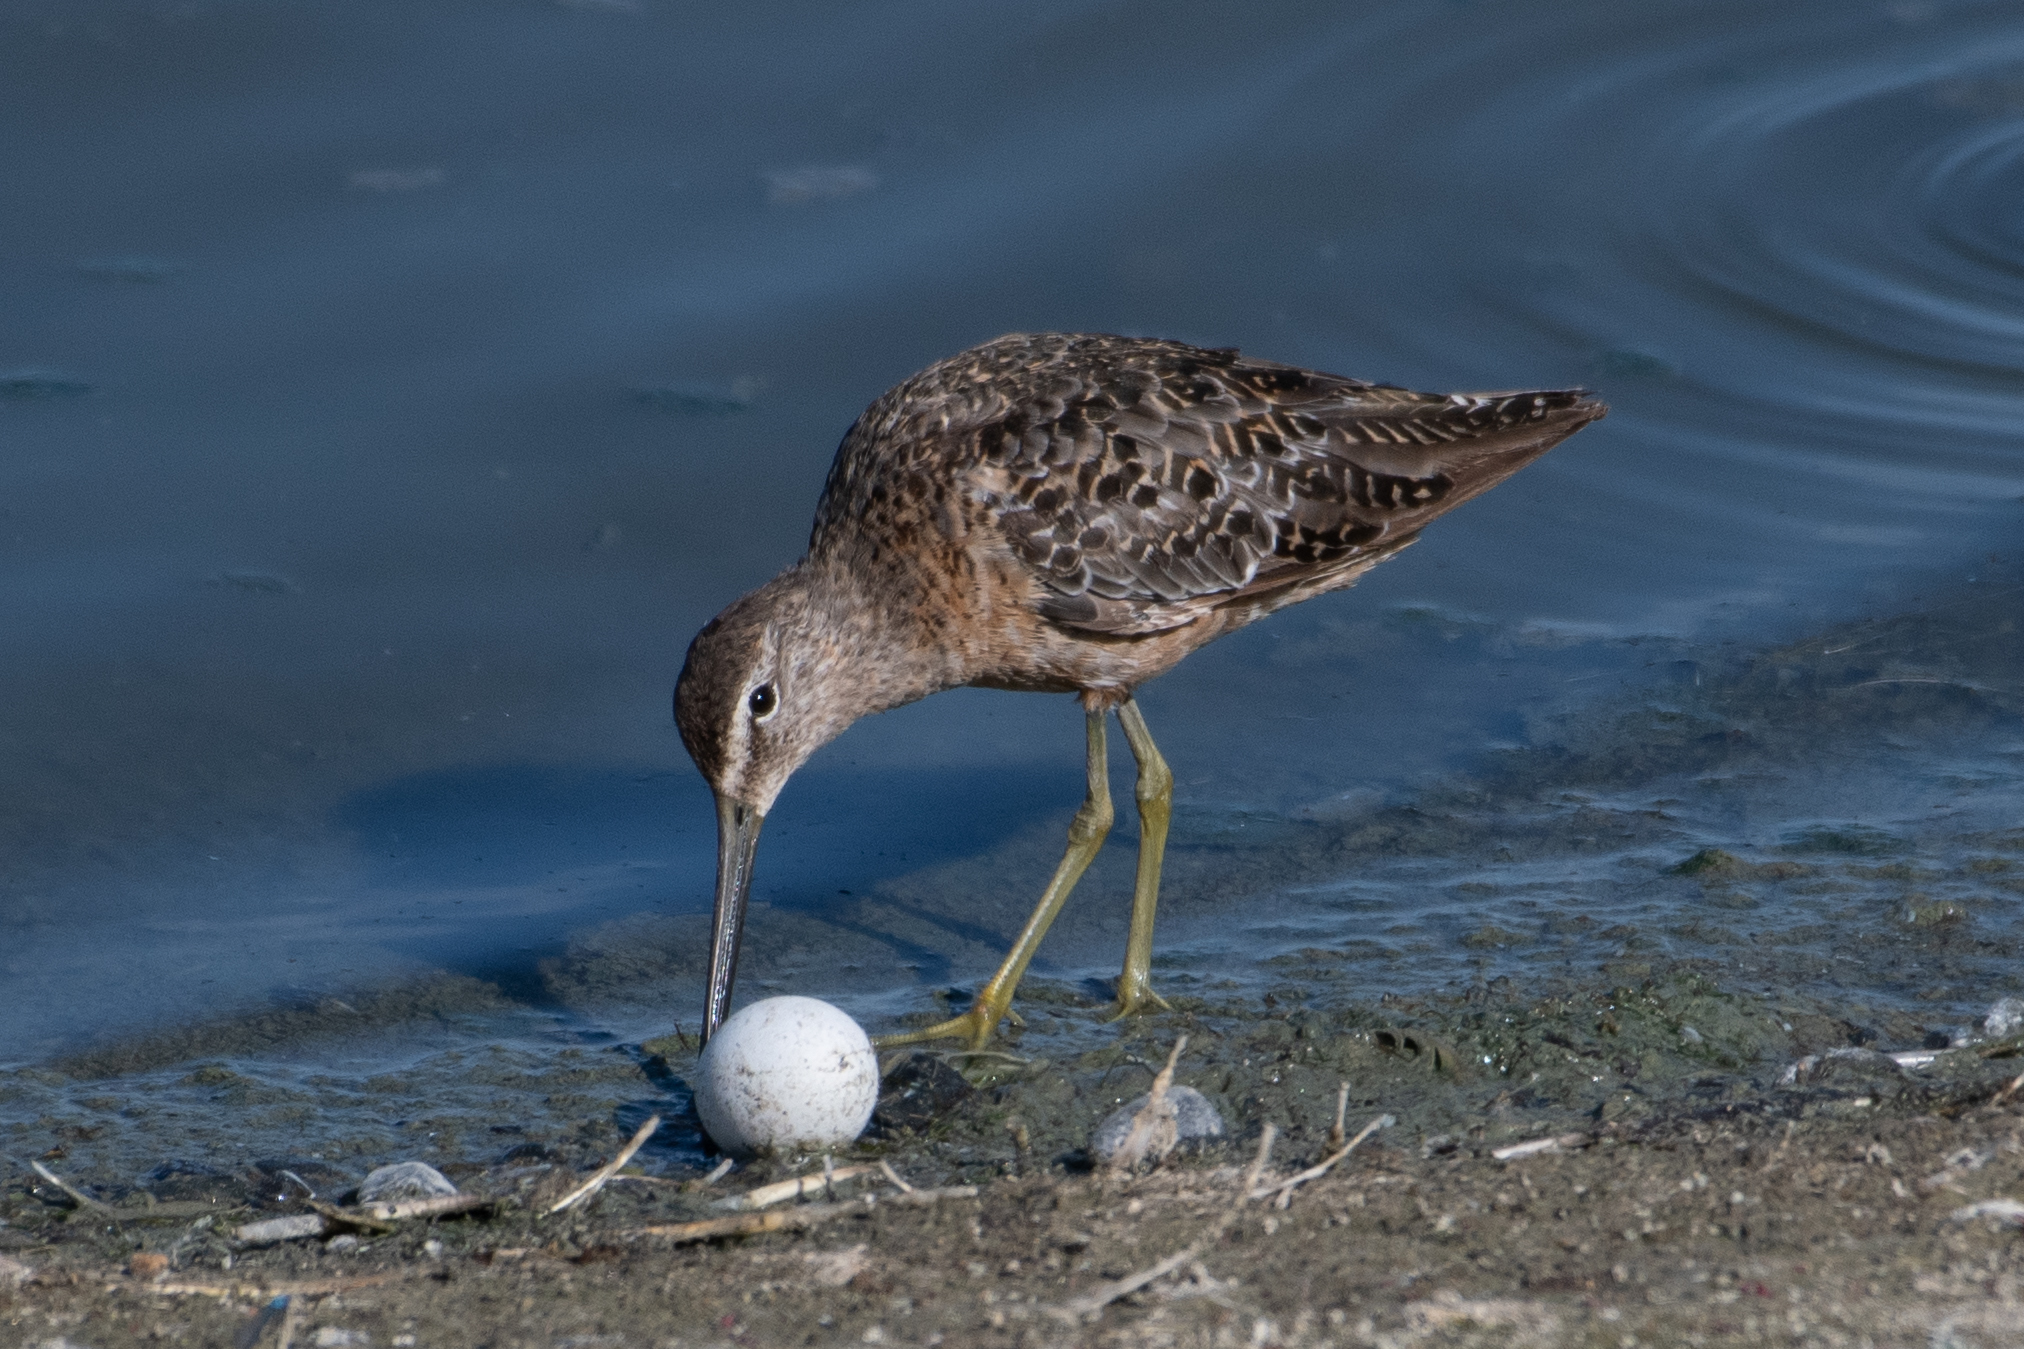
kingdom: Animalia
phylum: Chordata
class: Aves
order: Charadriiformes
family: Scolopacidae
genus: Limnodromus
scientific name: Limnodromus scolopaceus
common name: Long-billed dowitcher
